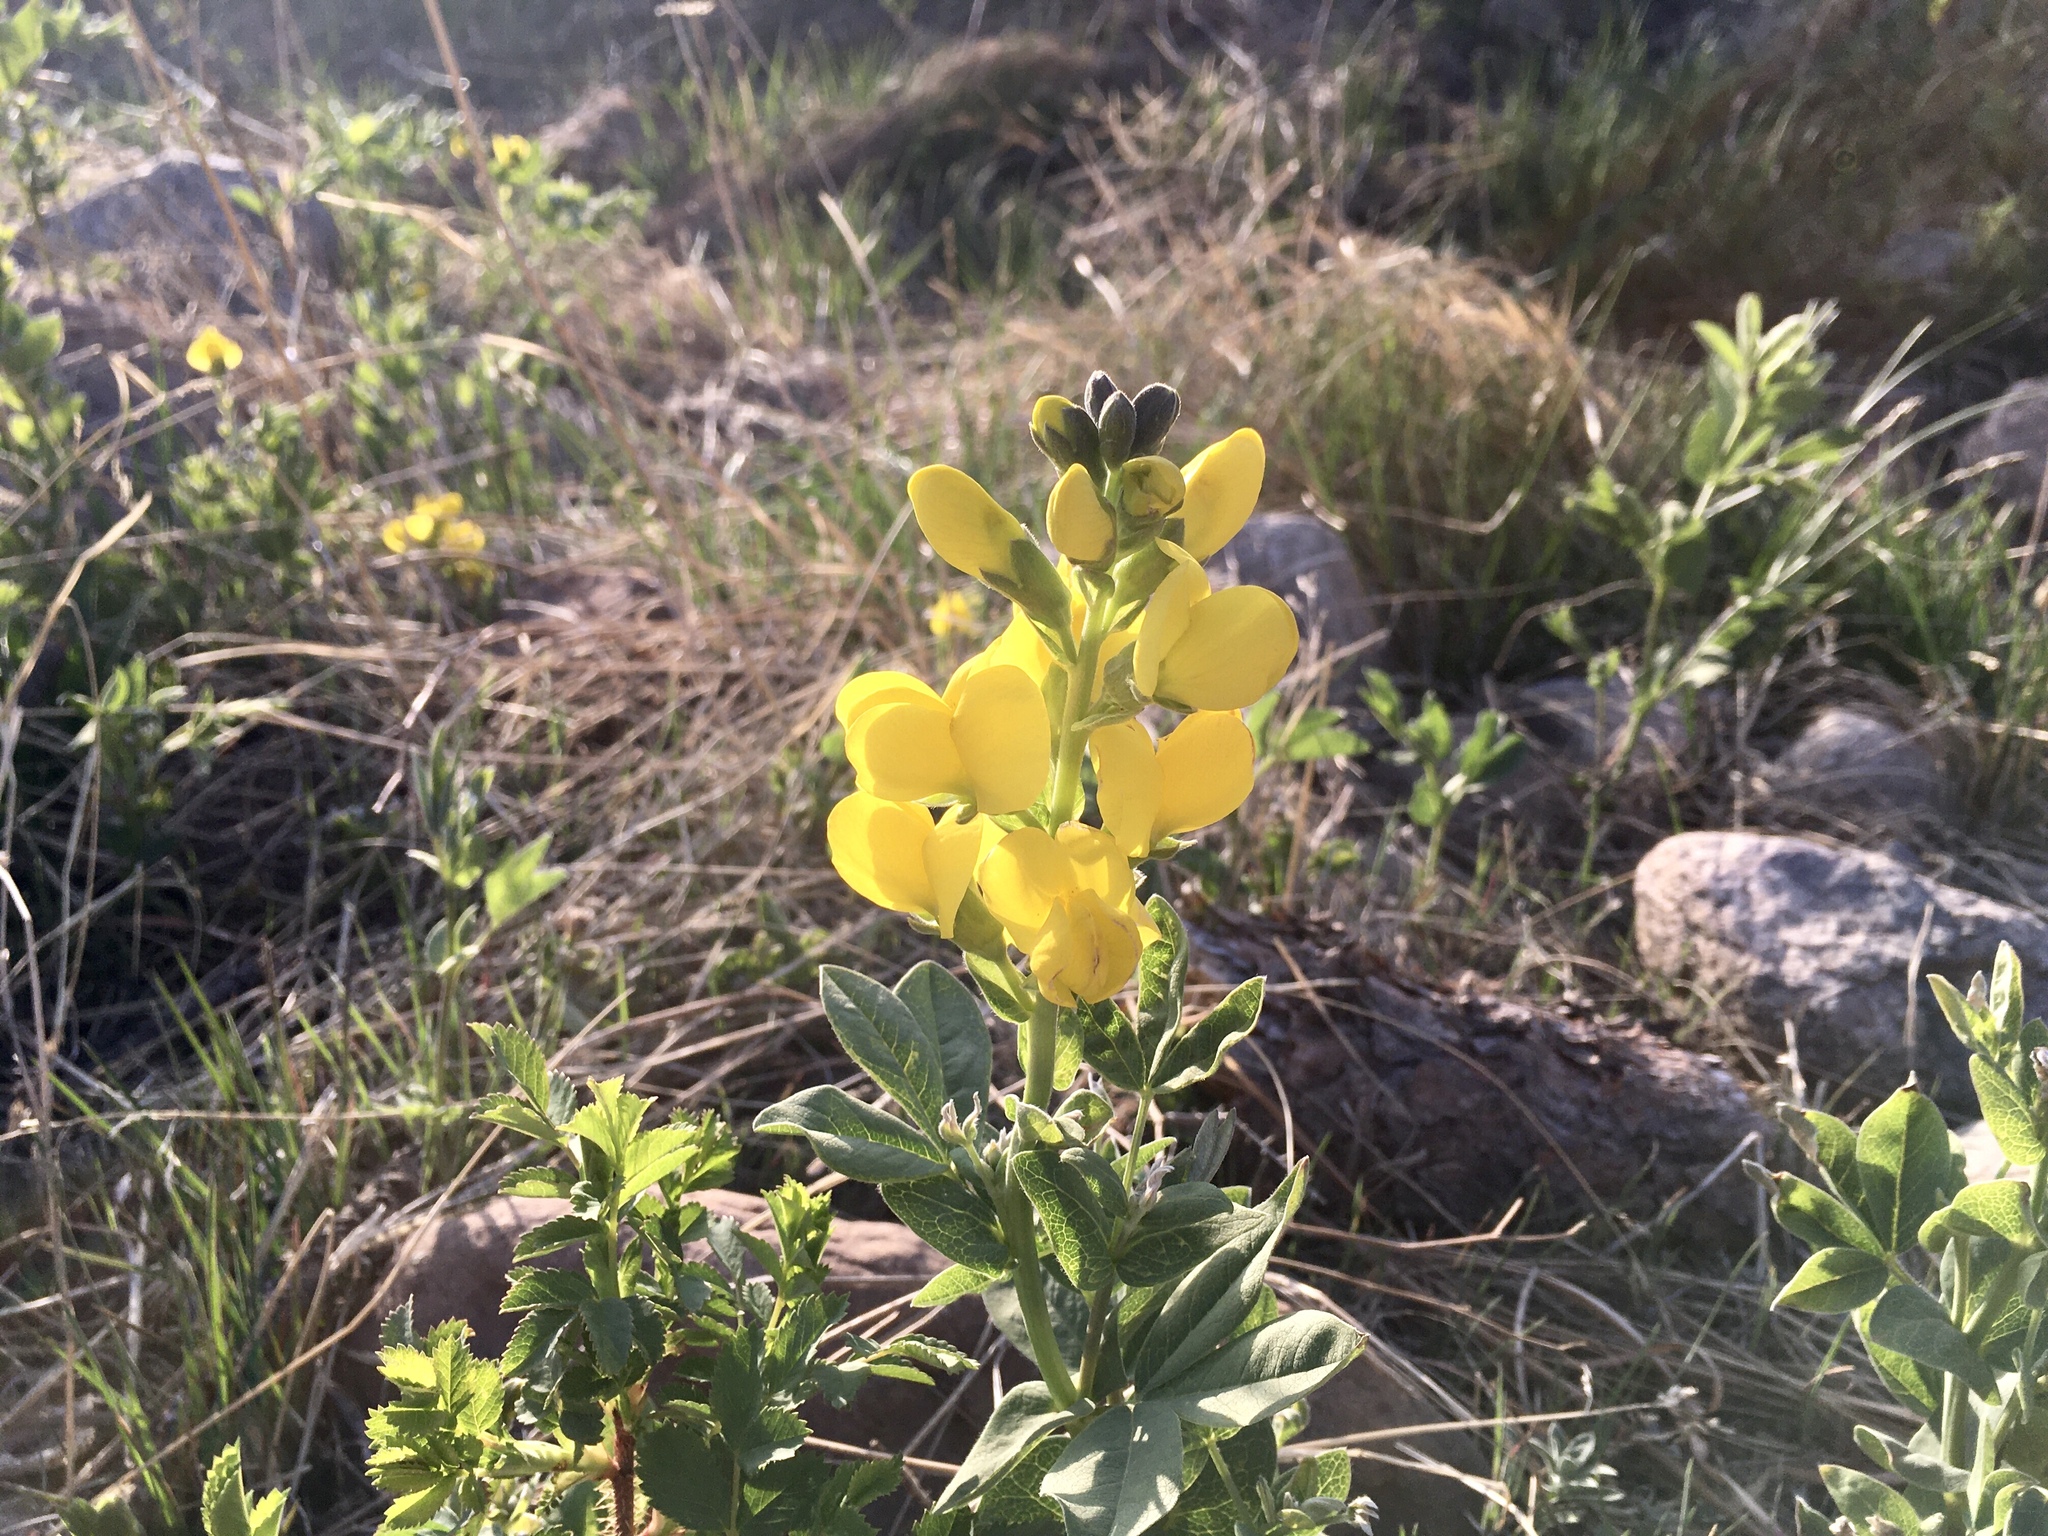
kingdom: Plantae
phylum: Tracheophyta
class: Magnoliopsida
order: Fabales
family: Fabaceae
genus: Thermopsis
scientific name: Thermopsis rhombifolia
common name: Circle-pod-pea
